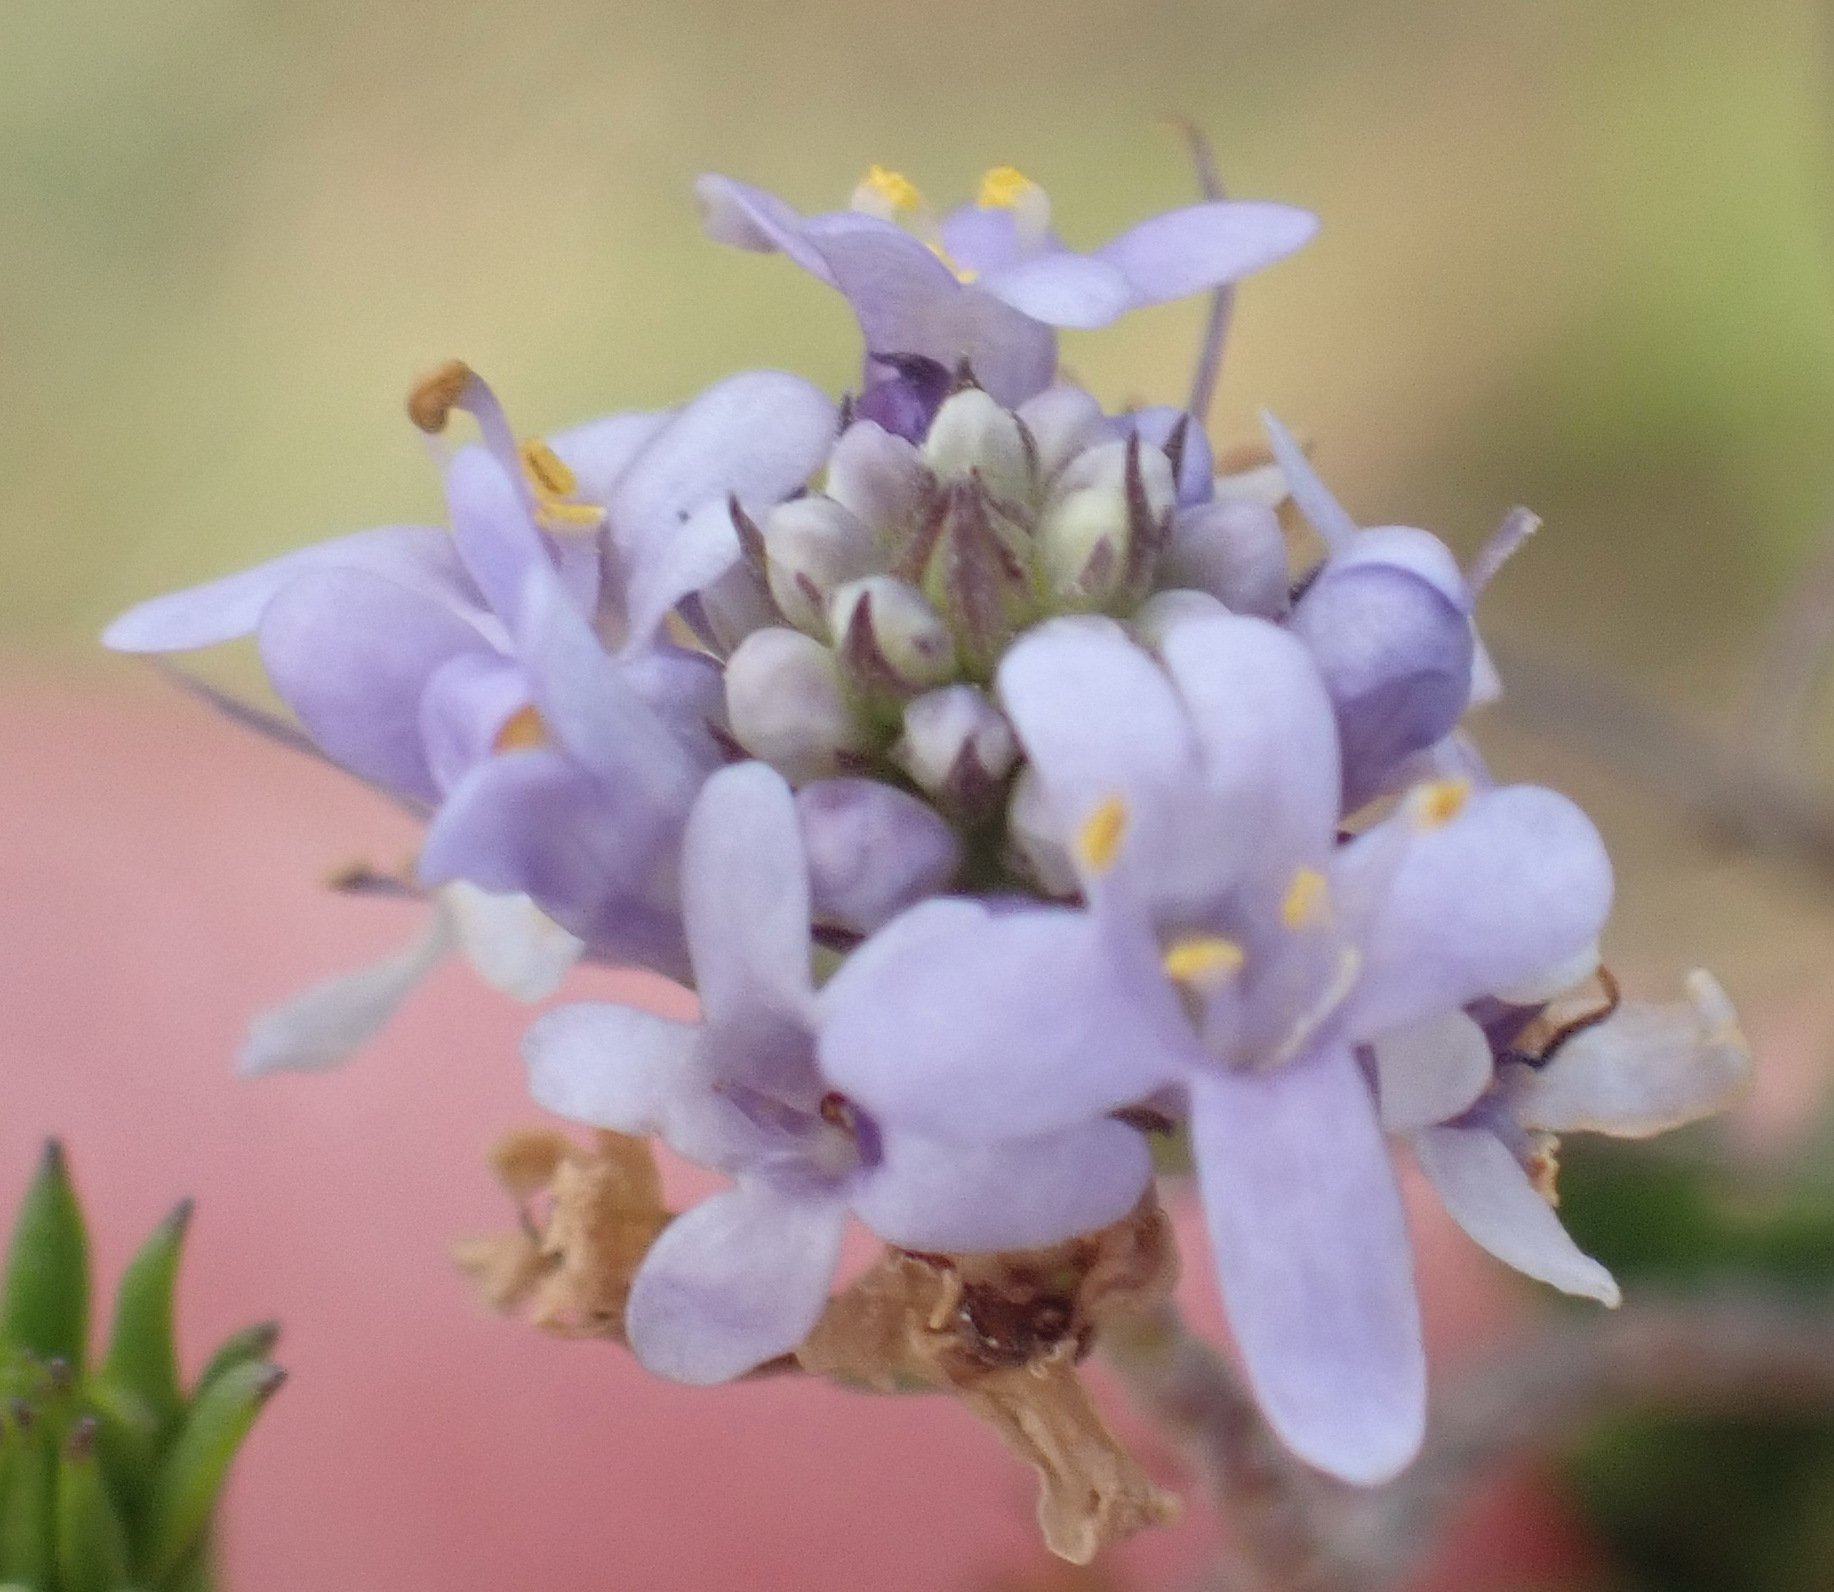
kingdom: Plantae
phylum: Tracheophyta
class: Magnoliopsida
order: Lamiales
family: Scrophulariaceae
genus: Selago
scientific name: Selago canescens
